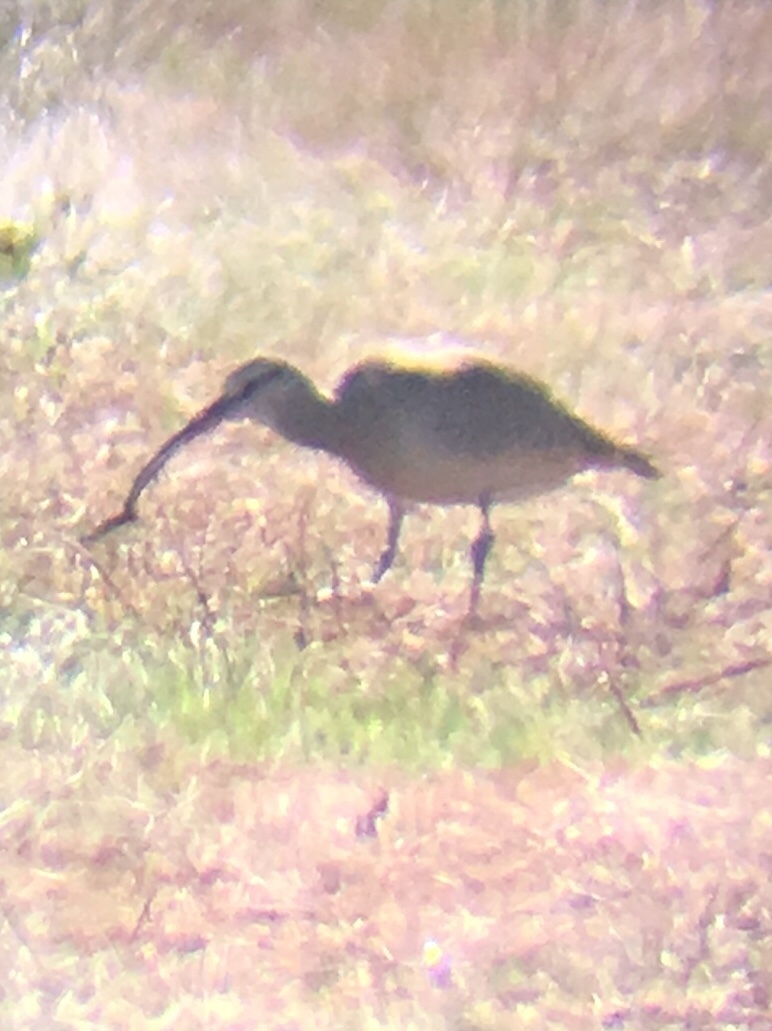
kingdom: Animalia
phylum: Chordata
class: Aves
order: Charadriiformes
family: Scolopacidae
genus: Numenius
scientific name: Numenius phaeopus
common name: Whimbrel
